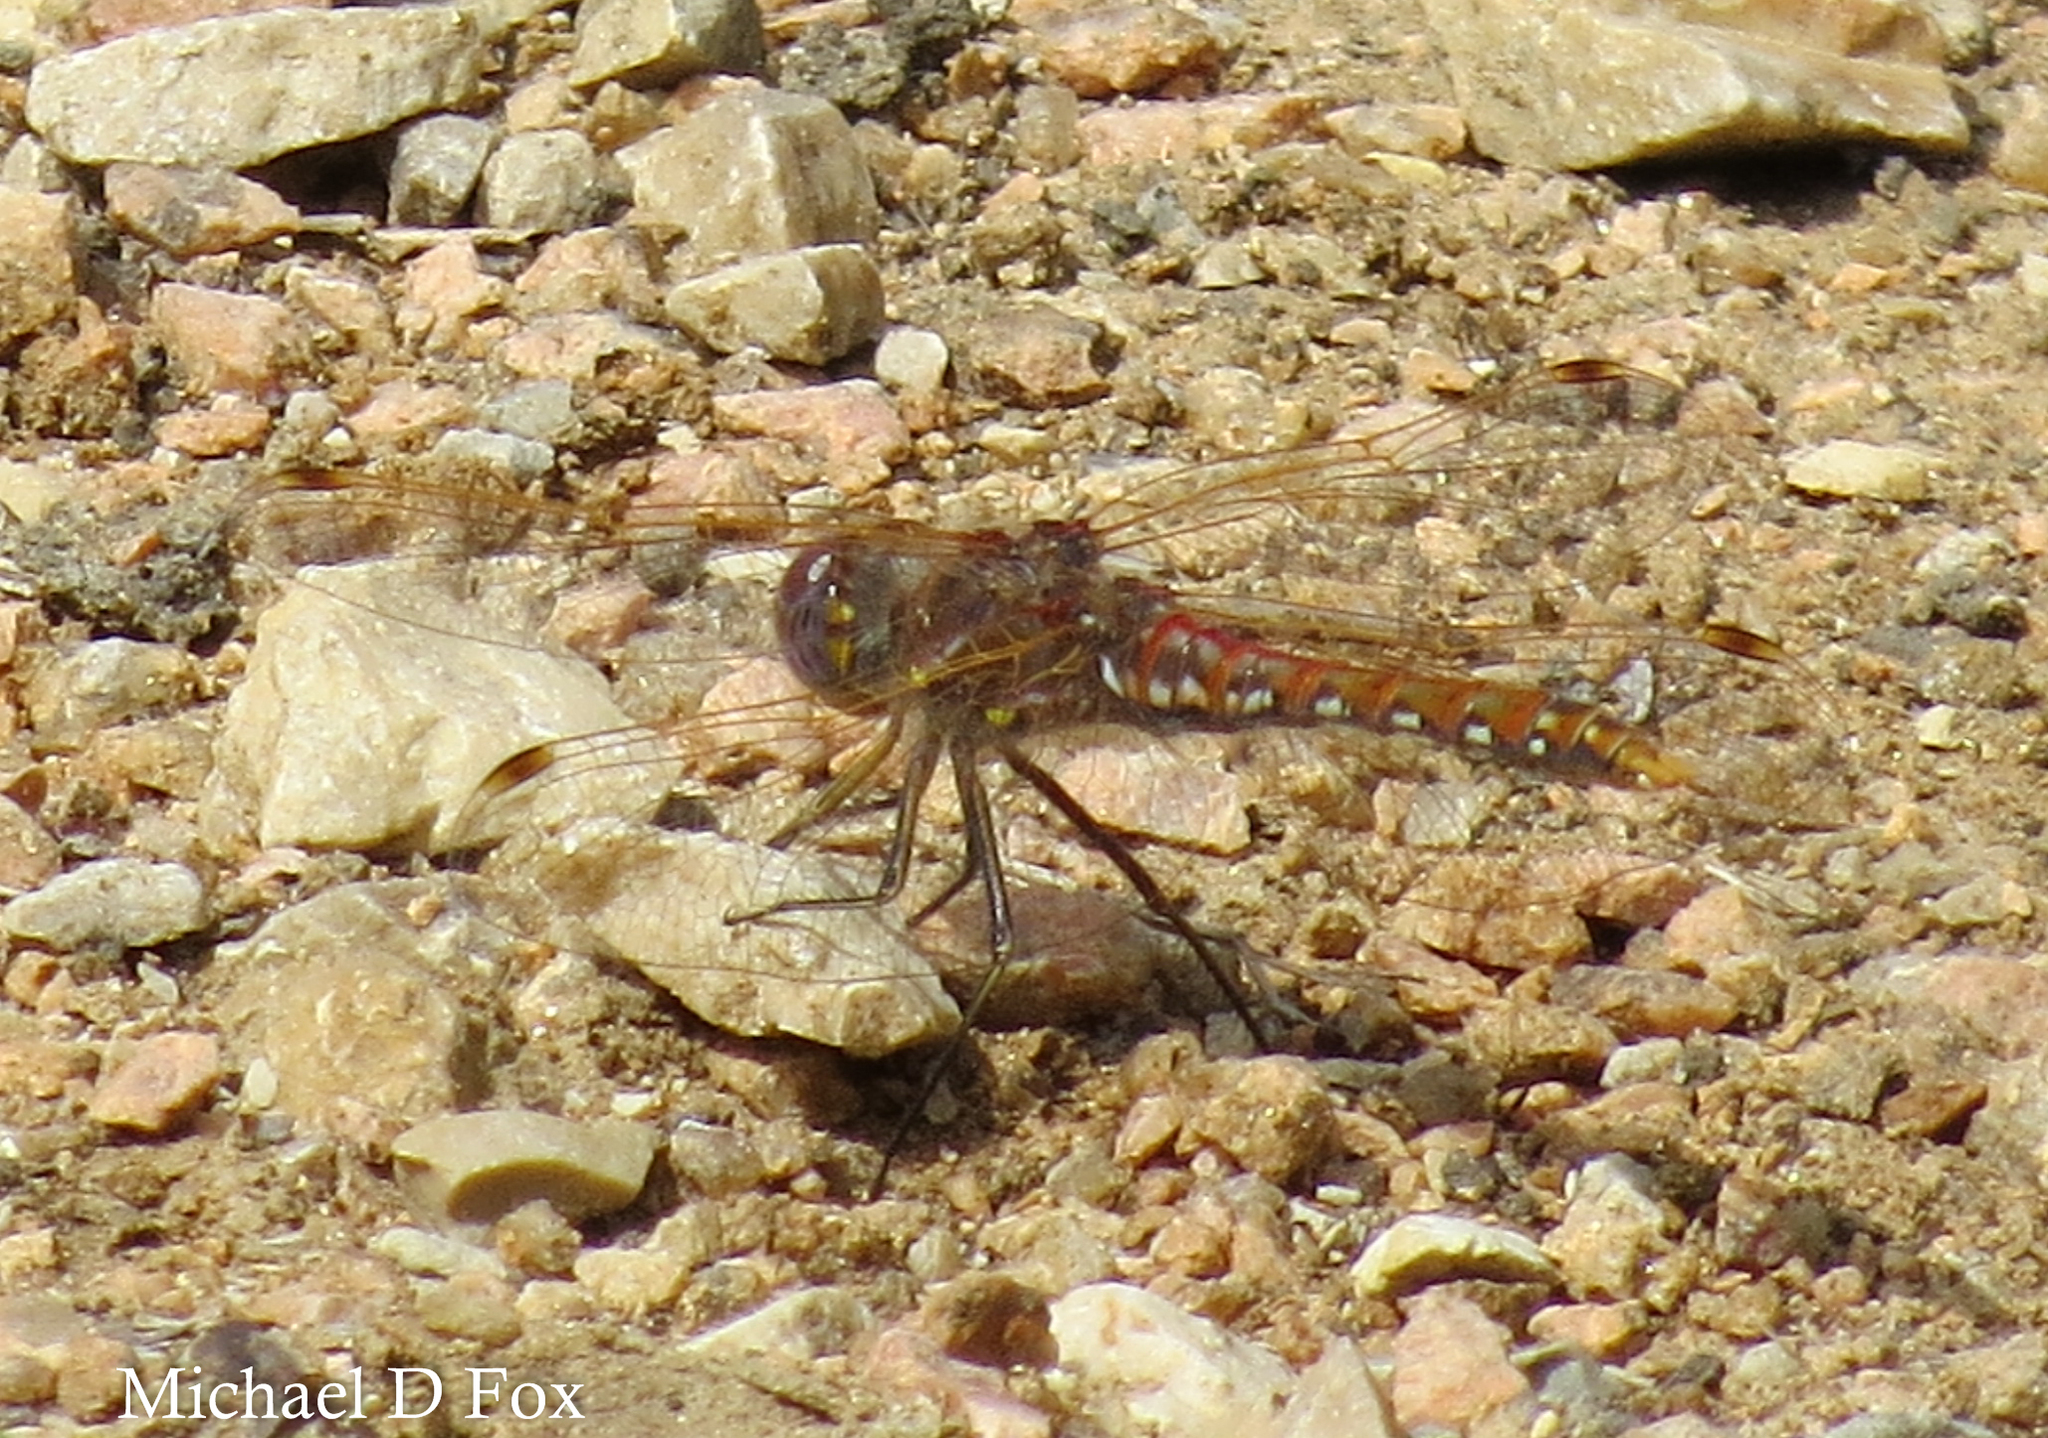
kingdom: Animalia
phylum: Arthropoda
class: Insecta
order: Odonata
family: Libellulidae
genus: Sympetrum
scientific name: Sympetrum corruptum
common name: Variegated meadowhawk
